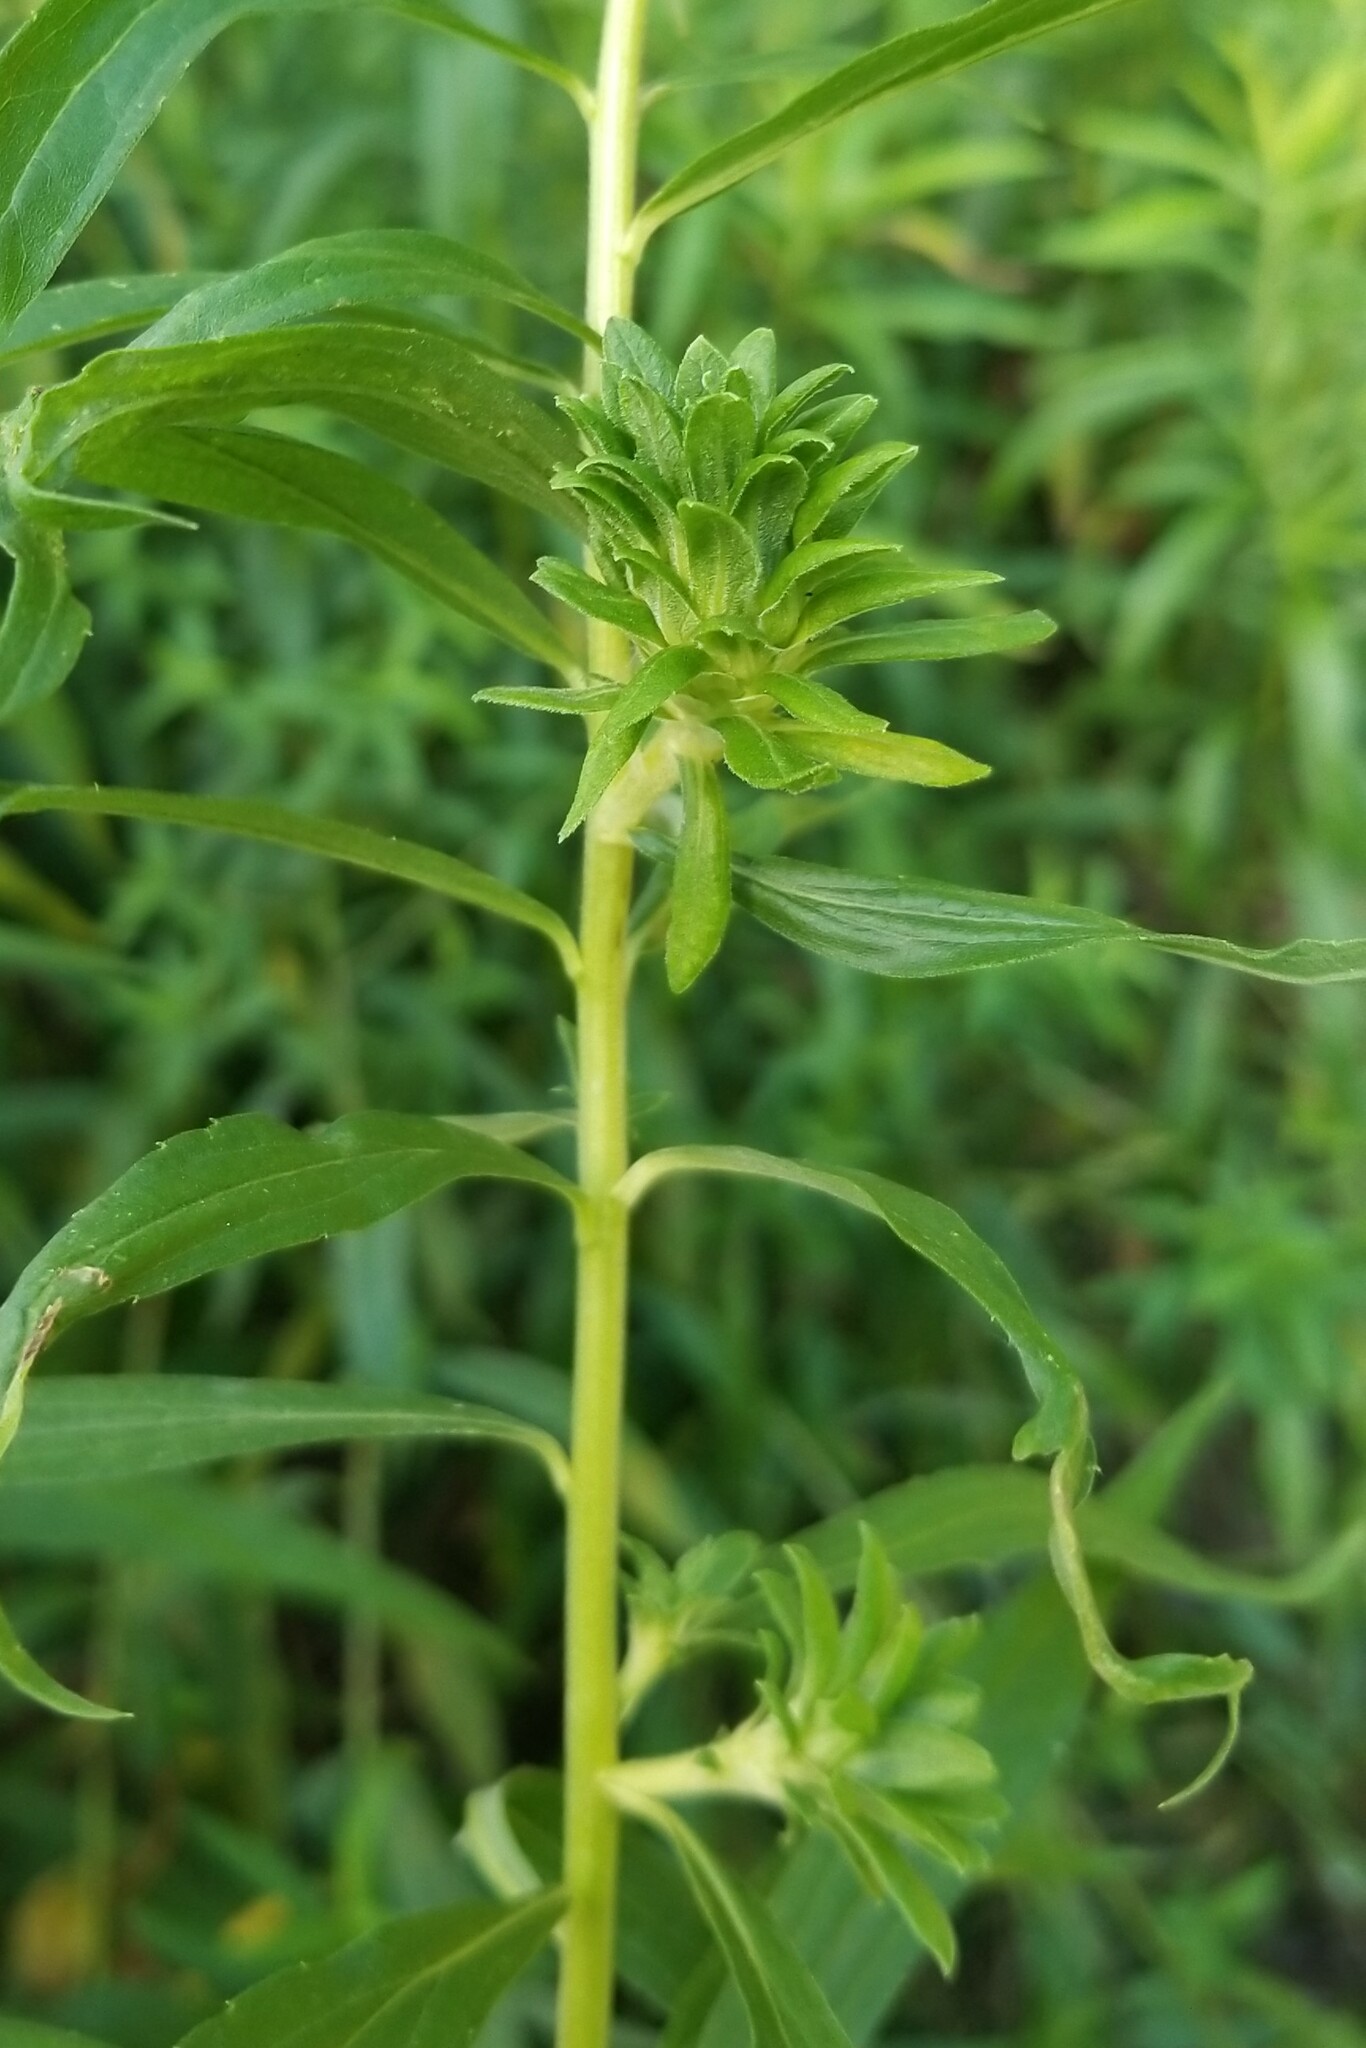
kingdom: Animalia
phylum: Arthropoda
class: Insecta
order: Diptera
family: Tephritidae
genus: Procecidochares
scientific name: Procecidochares atra
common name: Goldenrod brussels sprout gall fly
